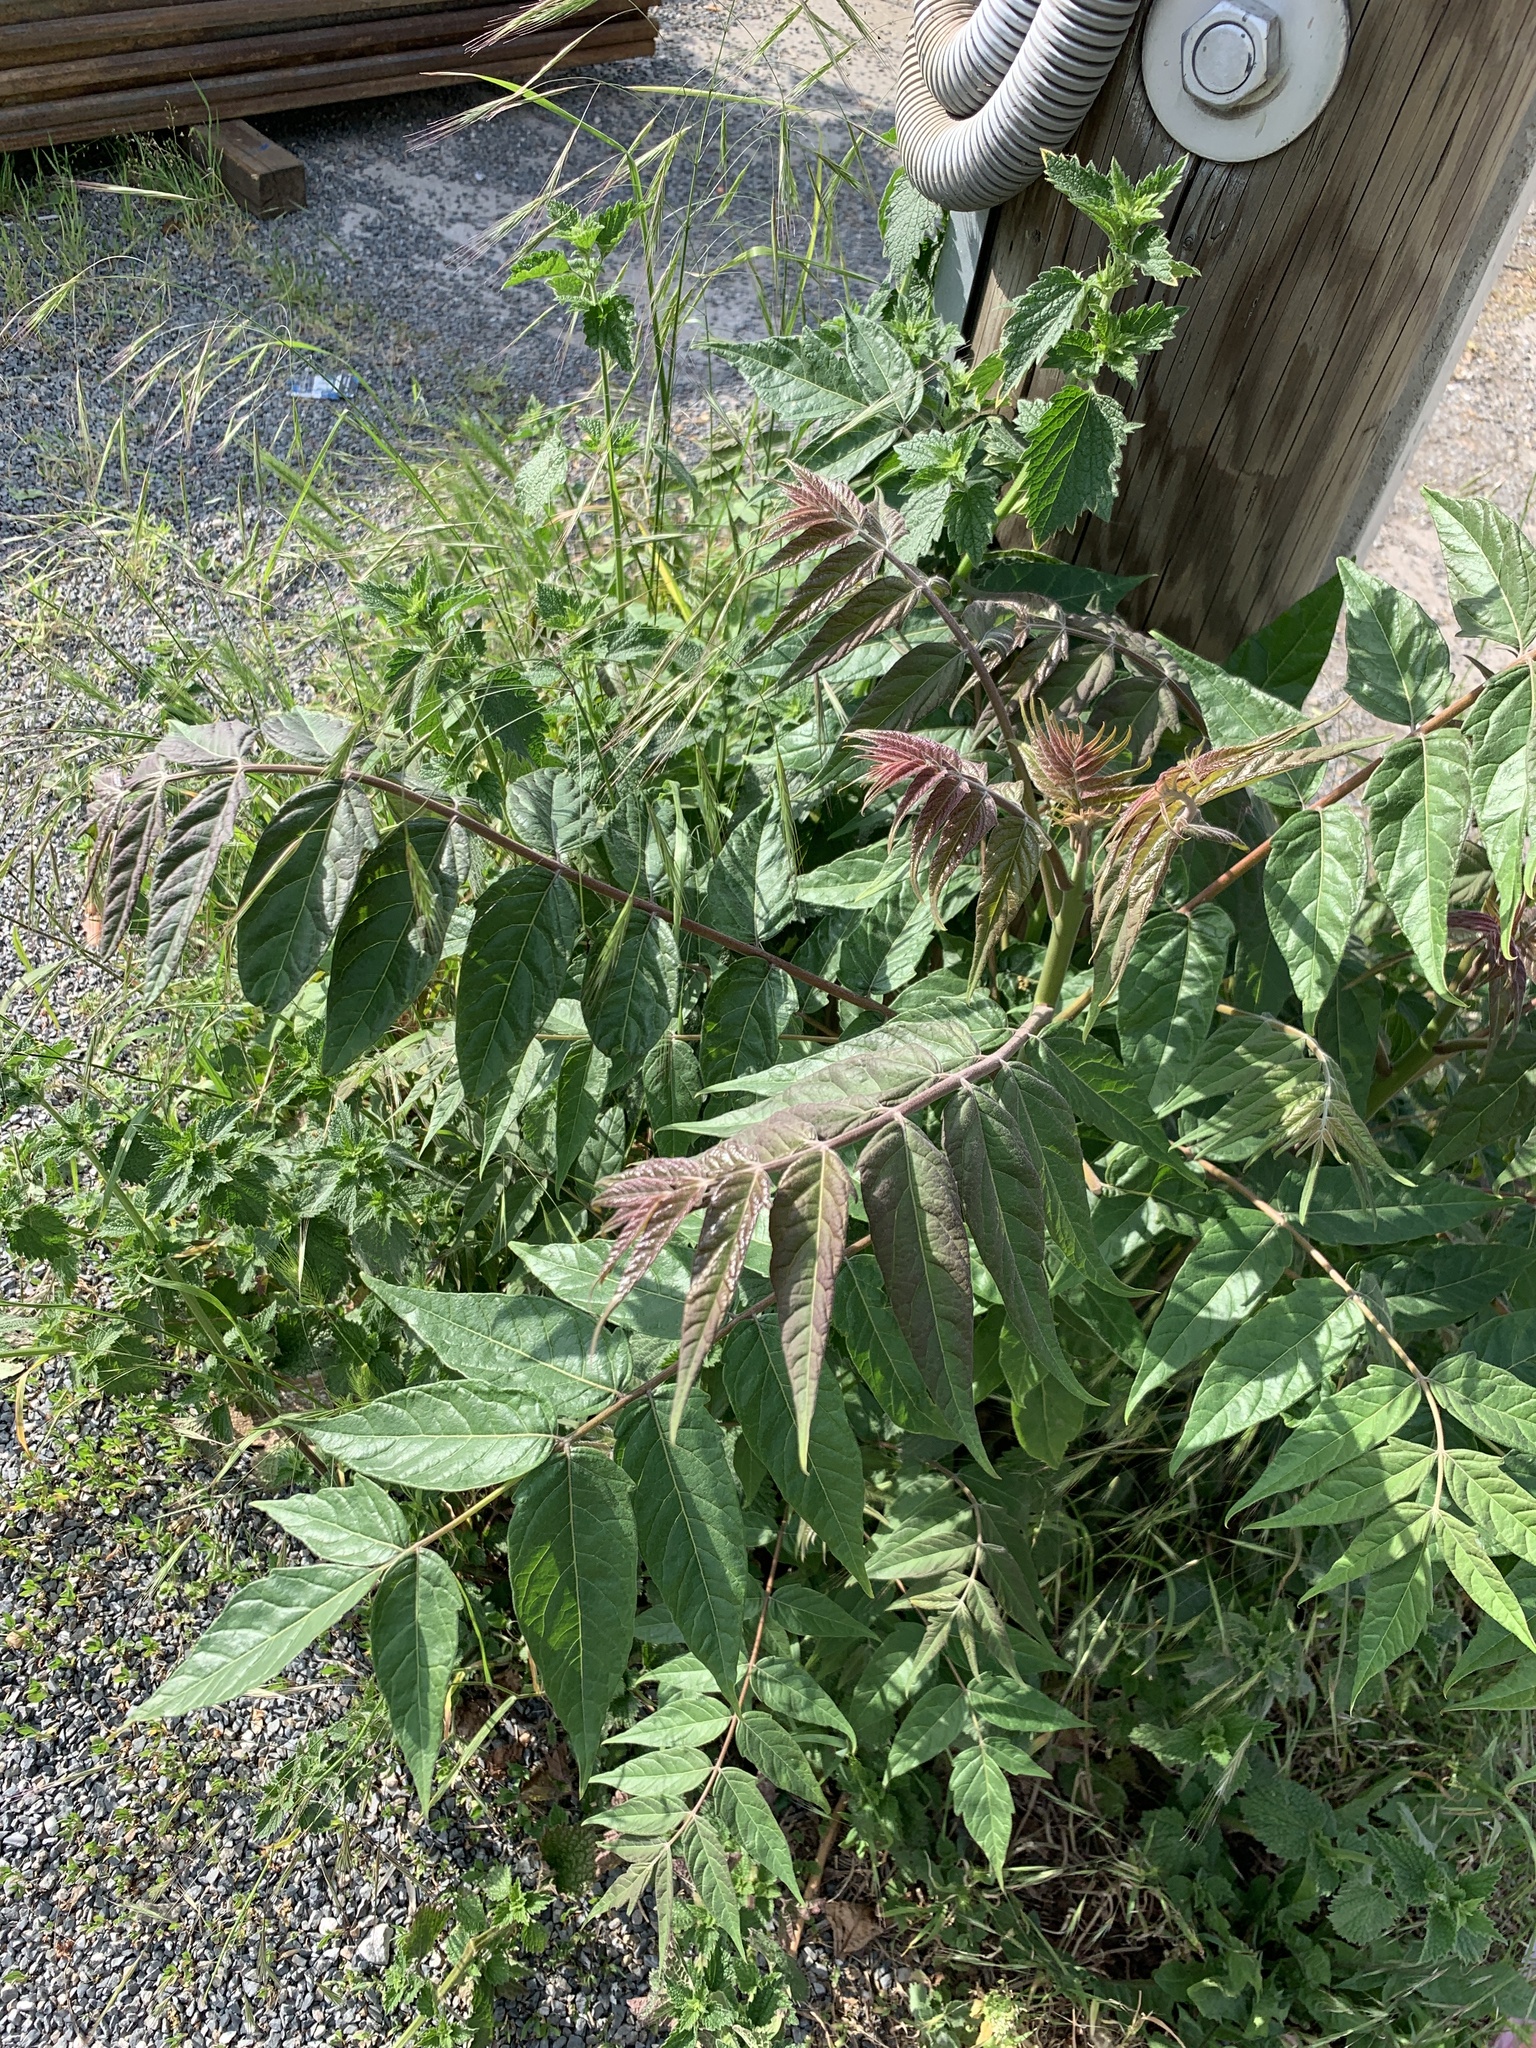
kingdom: Plantae
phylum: Tracheophyta
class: Magnoliopsida
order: Sapindales
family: Simaroubaceae
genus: Ailanthus
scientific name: Ailanthus altissima
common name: Tree-of-heaven
